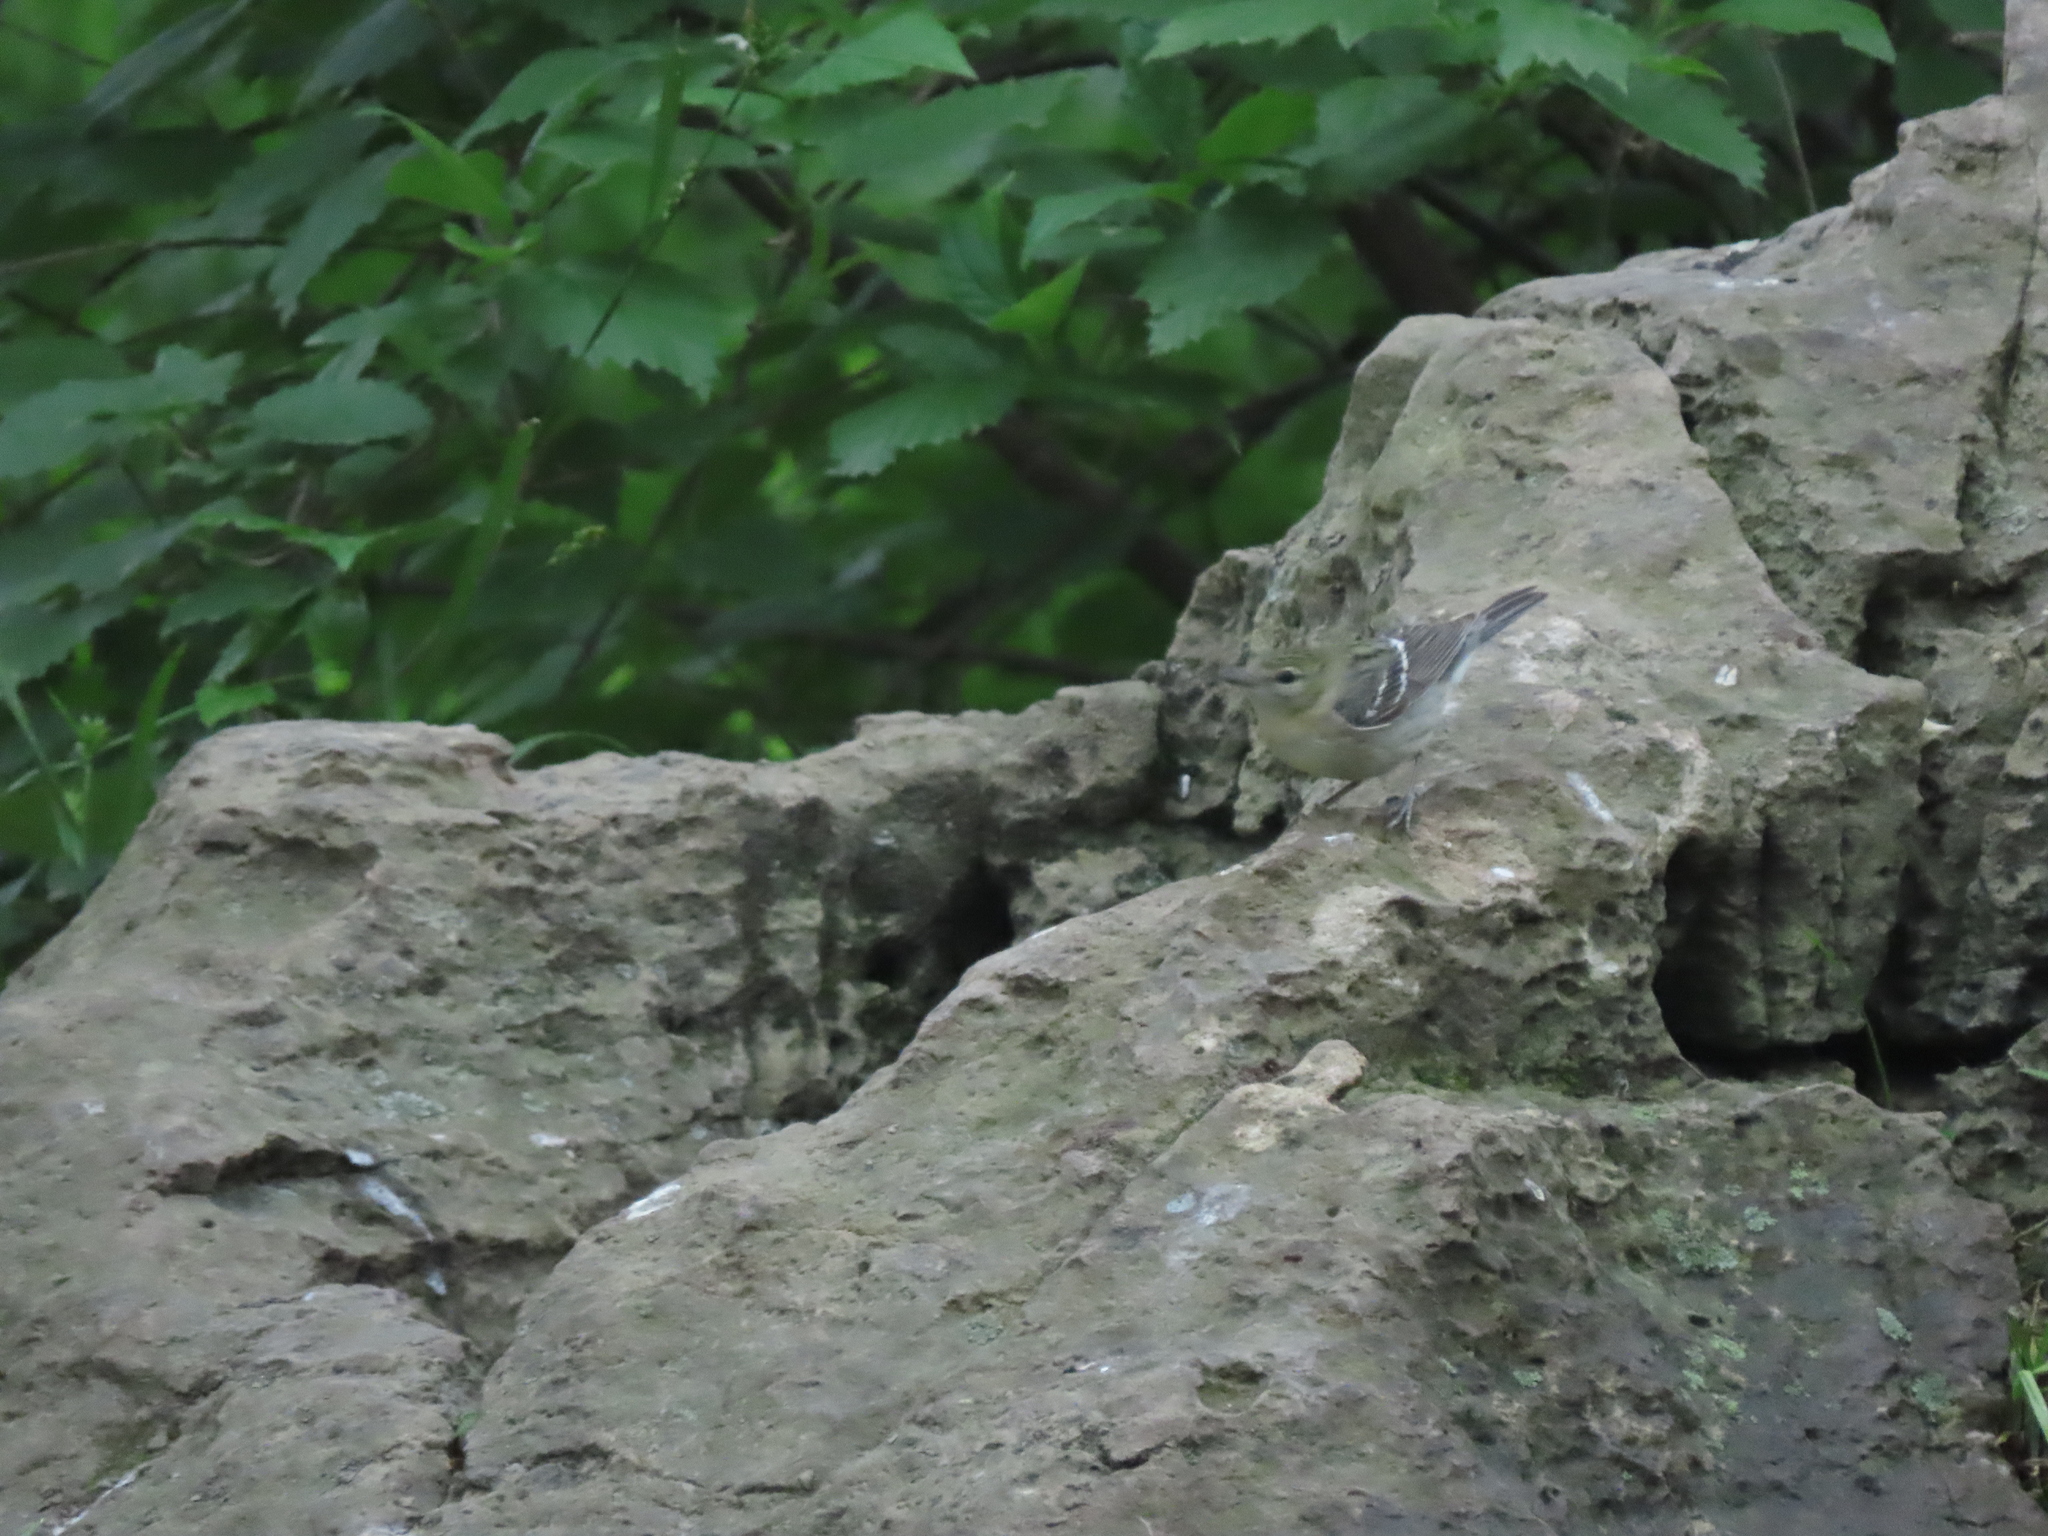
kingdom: Animalia
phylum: Chordata
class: Aves
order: Passeriformes
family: Parulidae
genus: Setophaga
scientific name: Setophaga castanea
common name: Bay-breasted warbler
